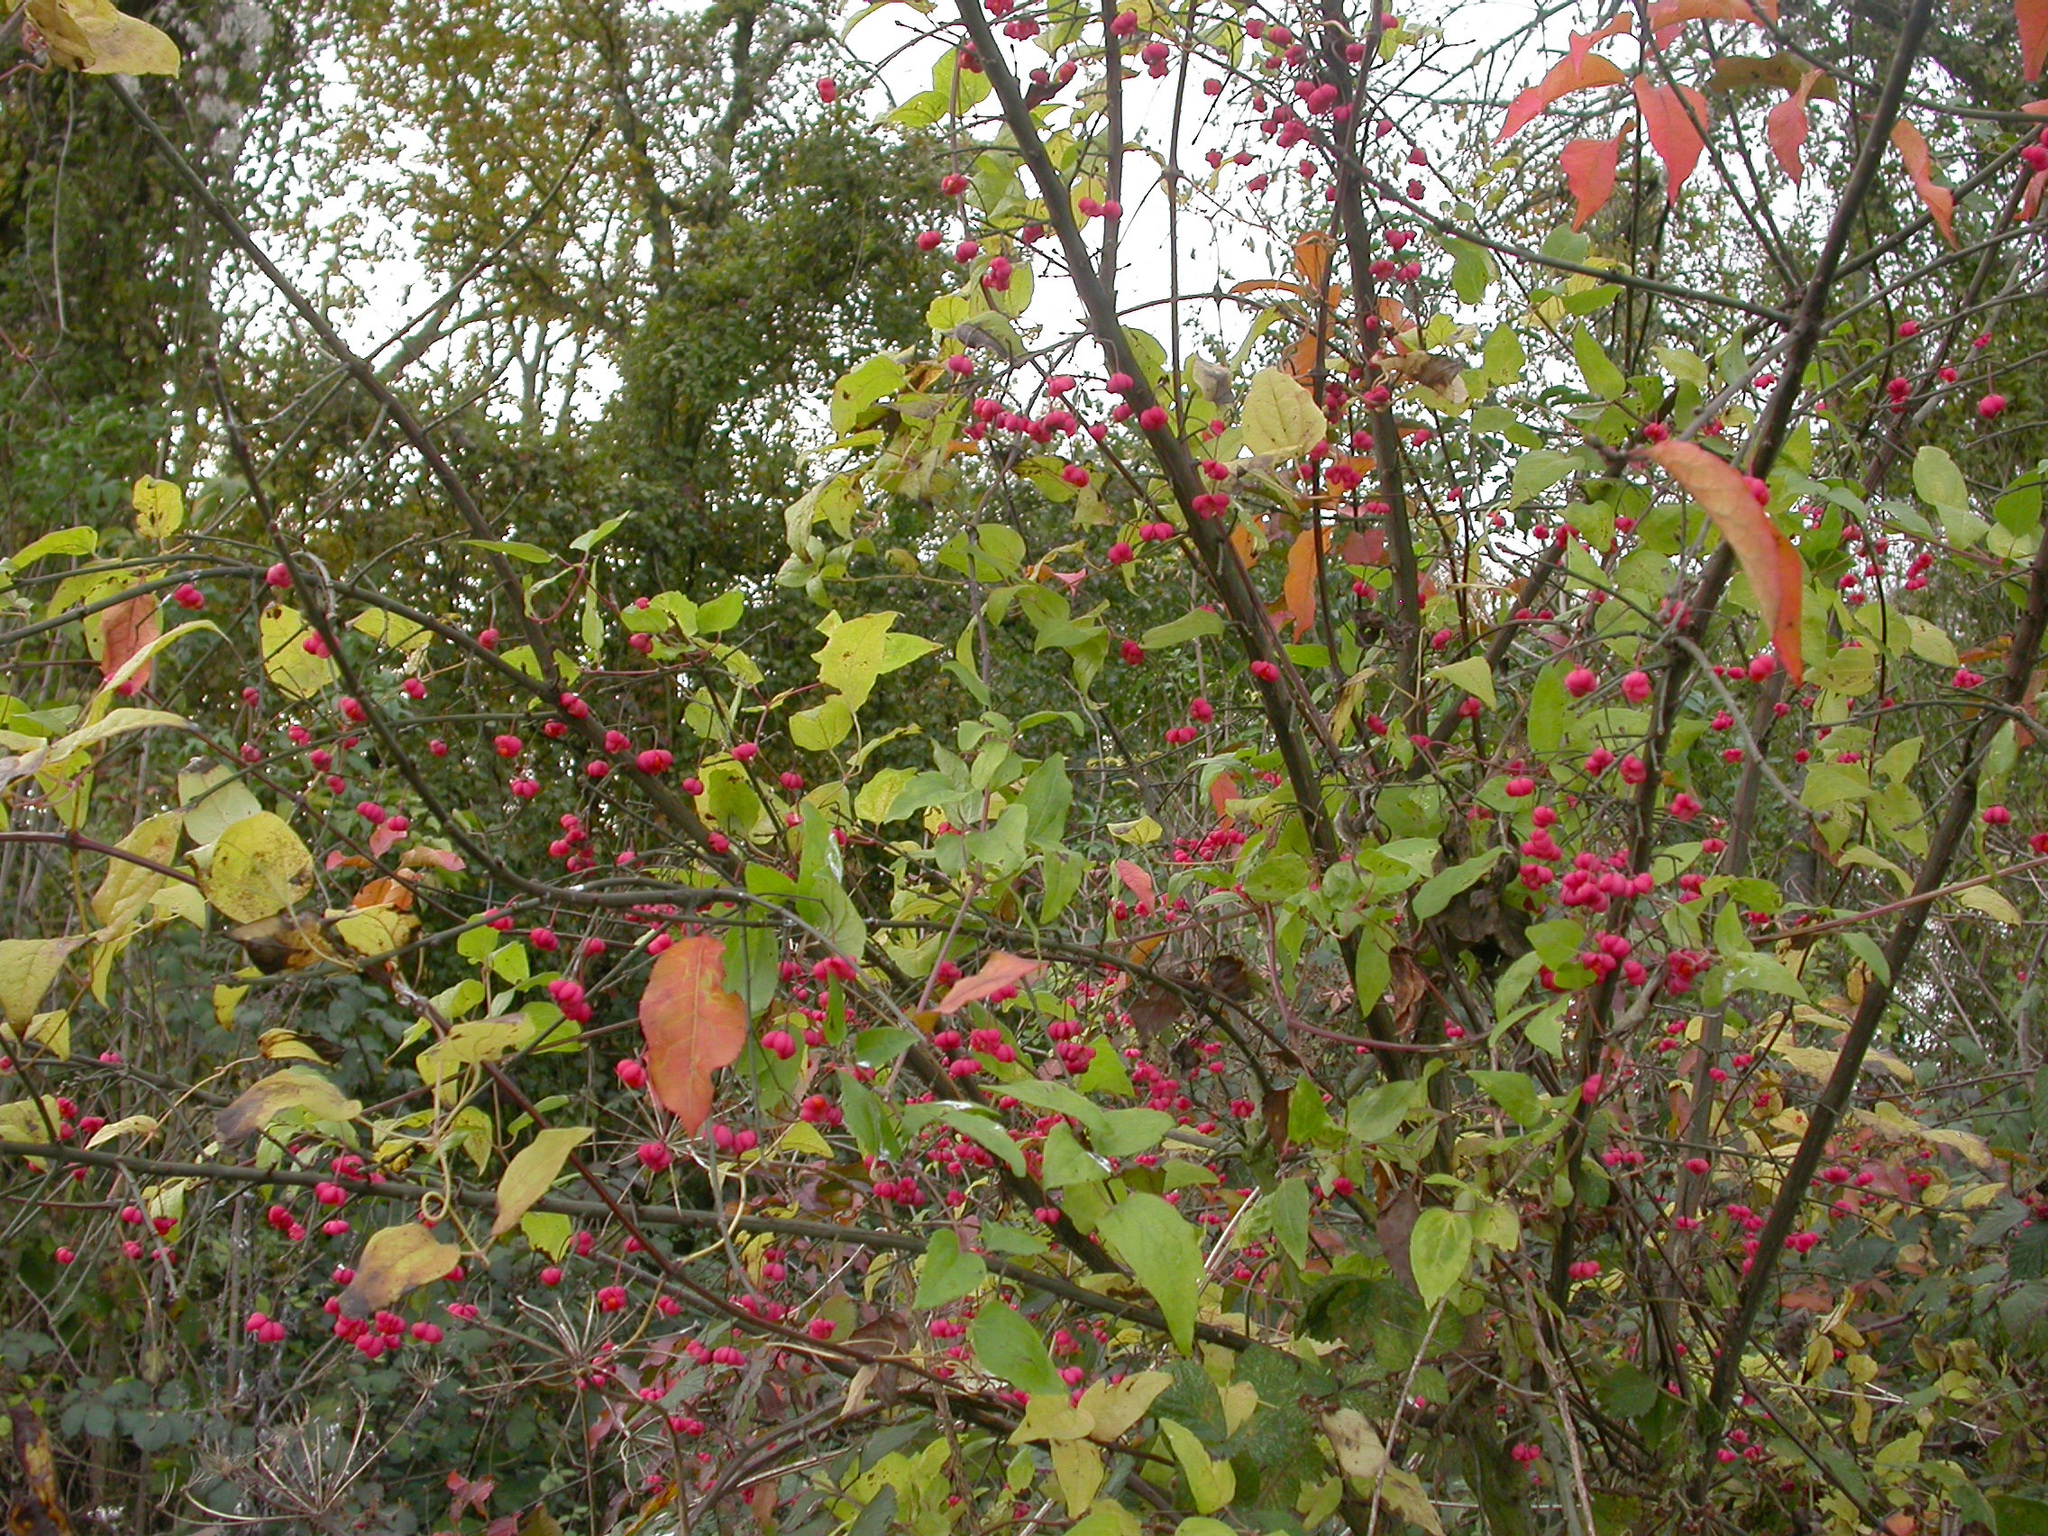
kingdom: Plantae
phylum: Tracheophyta
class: Magnoliopsida
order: Celastrales
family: Celastraceae
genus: Euonymus
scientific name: Euonymus europaeus
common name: Spindle
